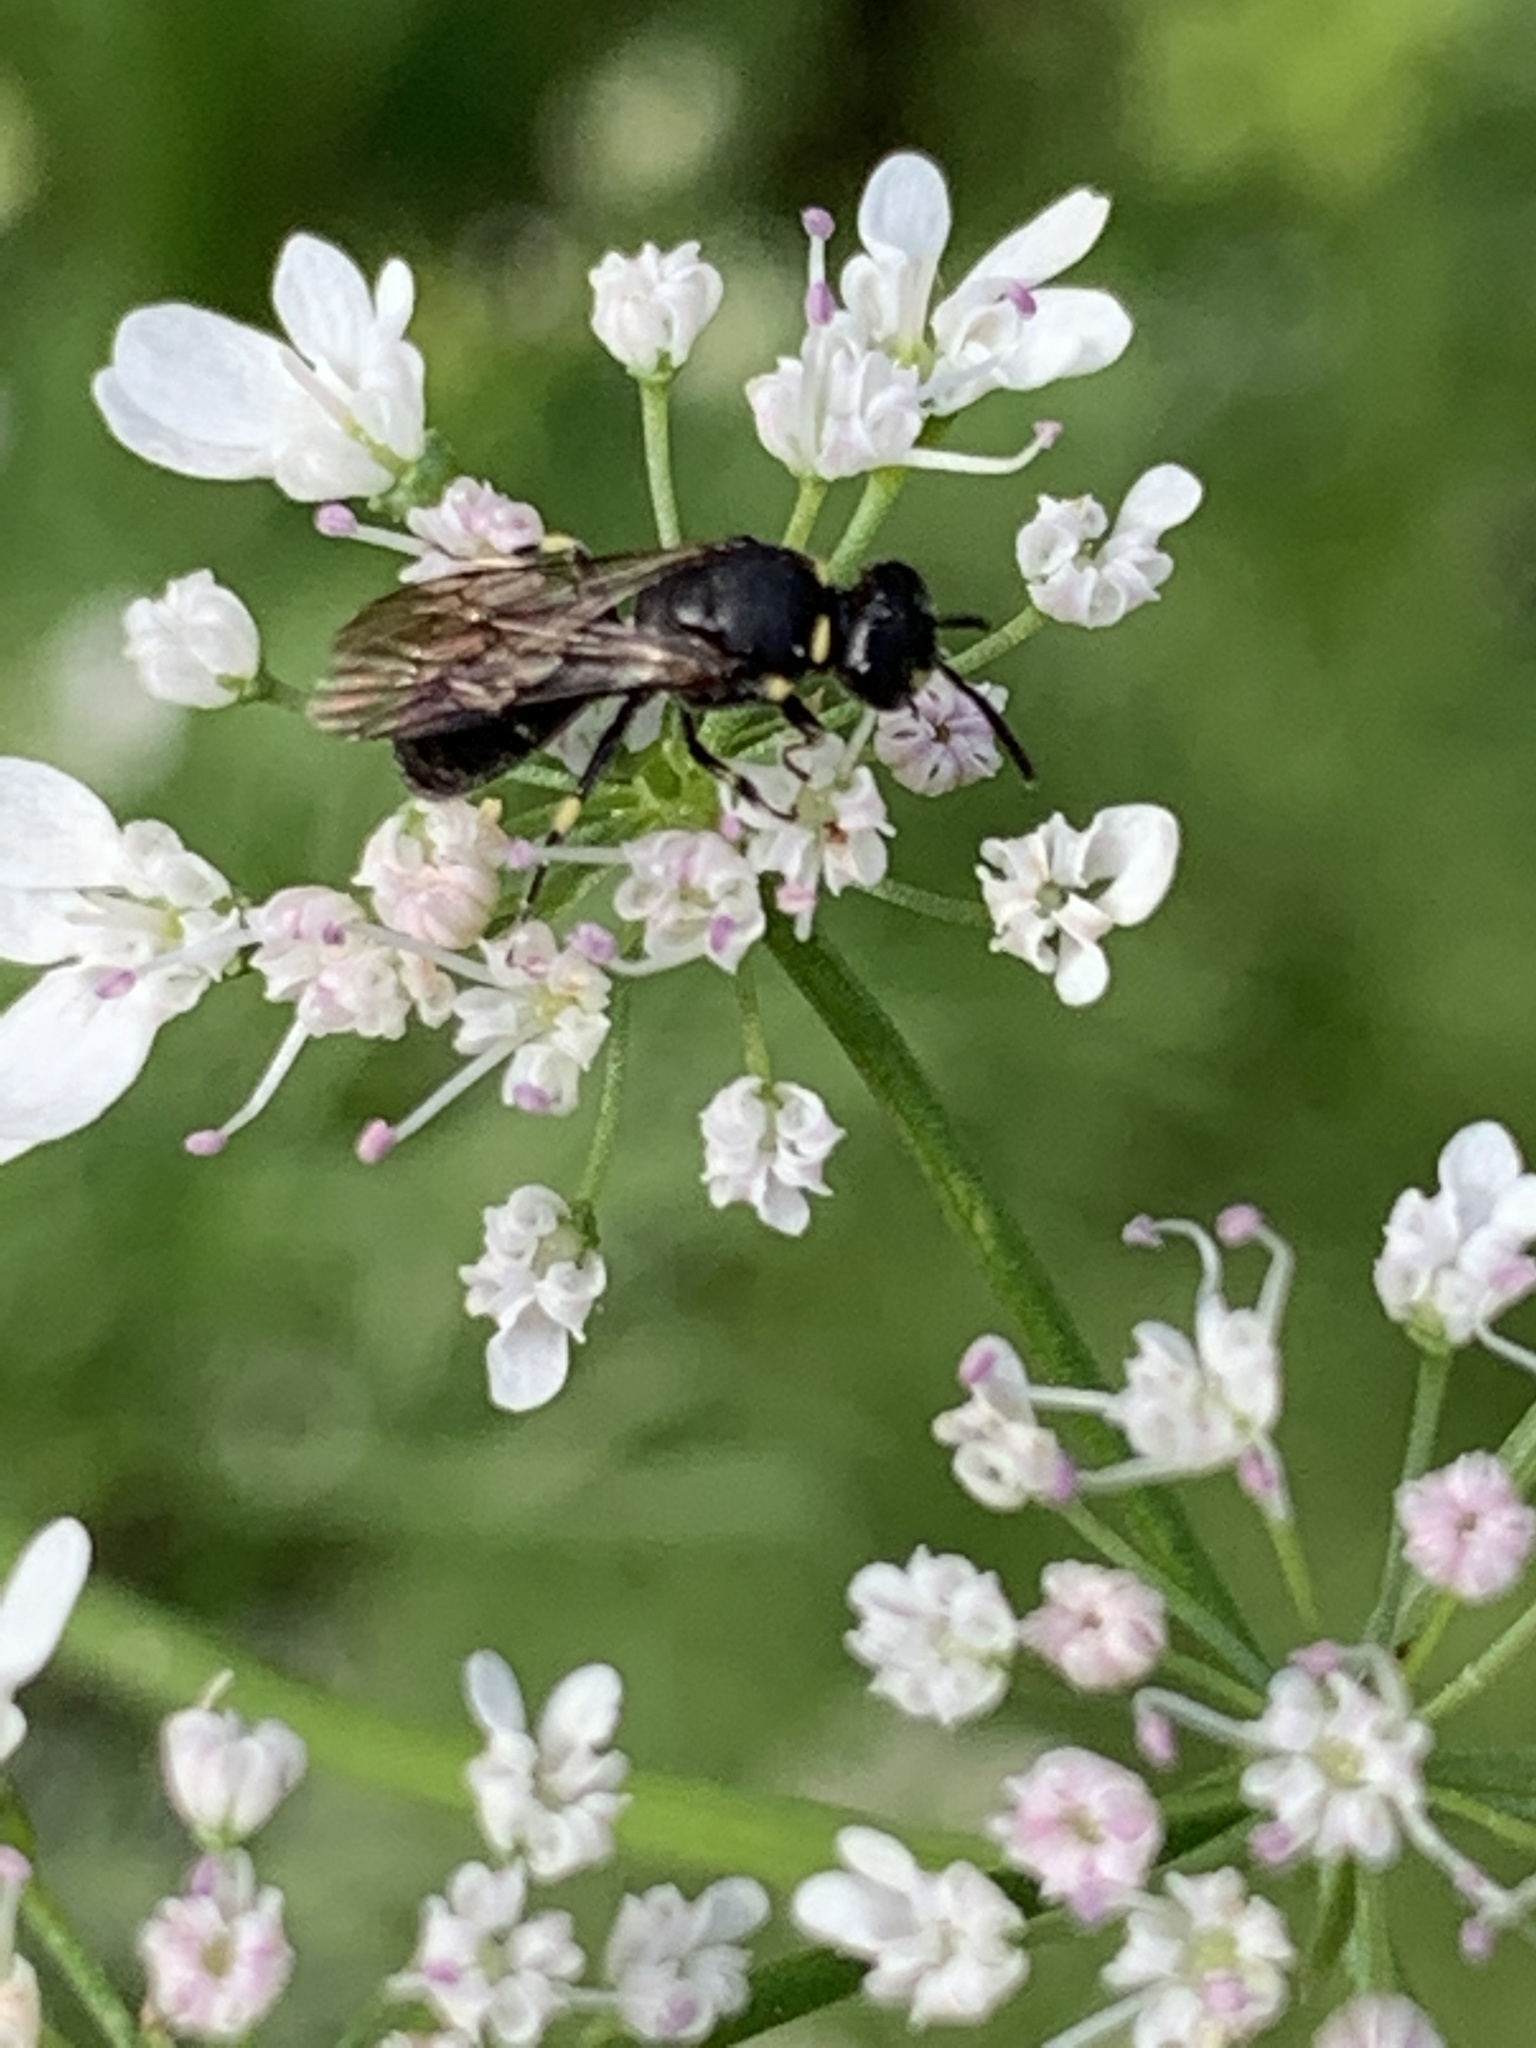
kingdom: Animalia
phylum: Arthropoda
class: Insecta
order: Hymenoptera
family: Colletidae
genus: Hylaeus
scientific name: Hylaeus modestus
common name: Yellow-faced bee
